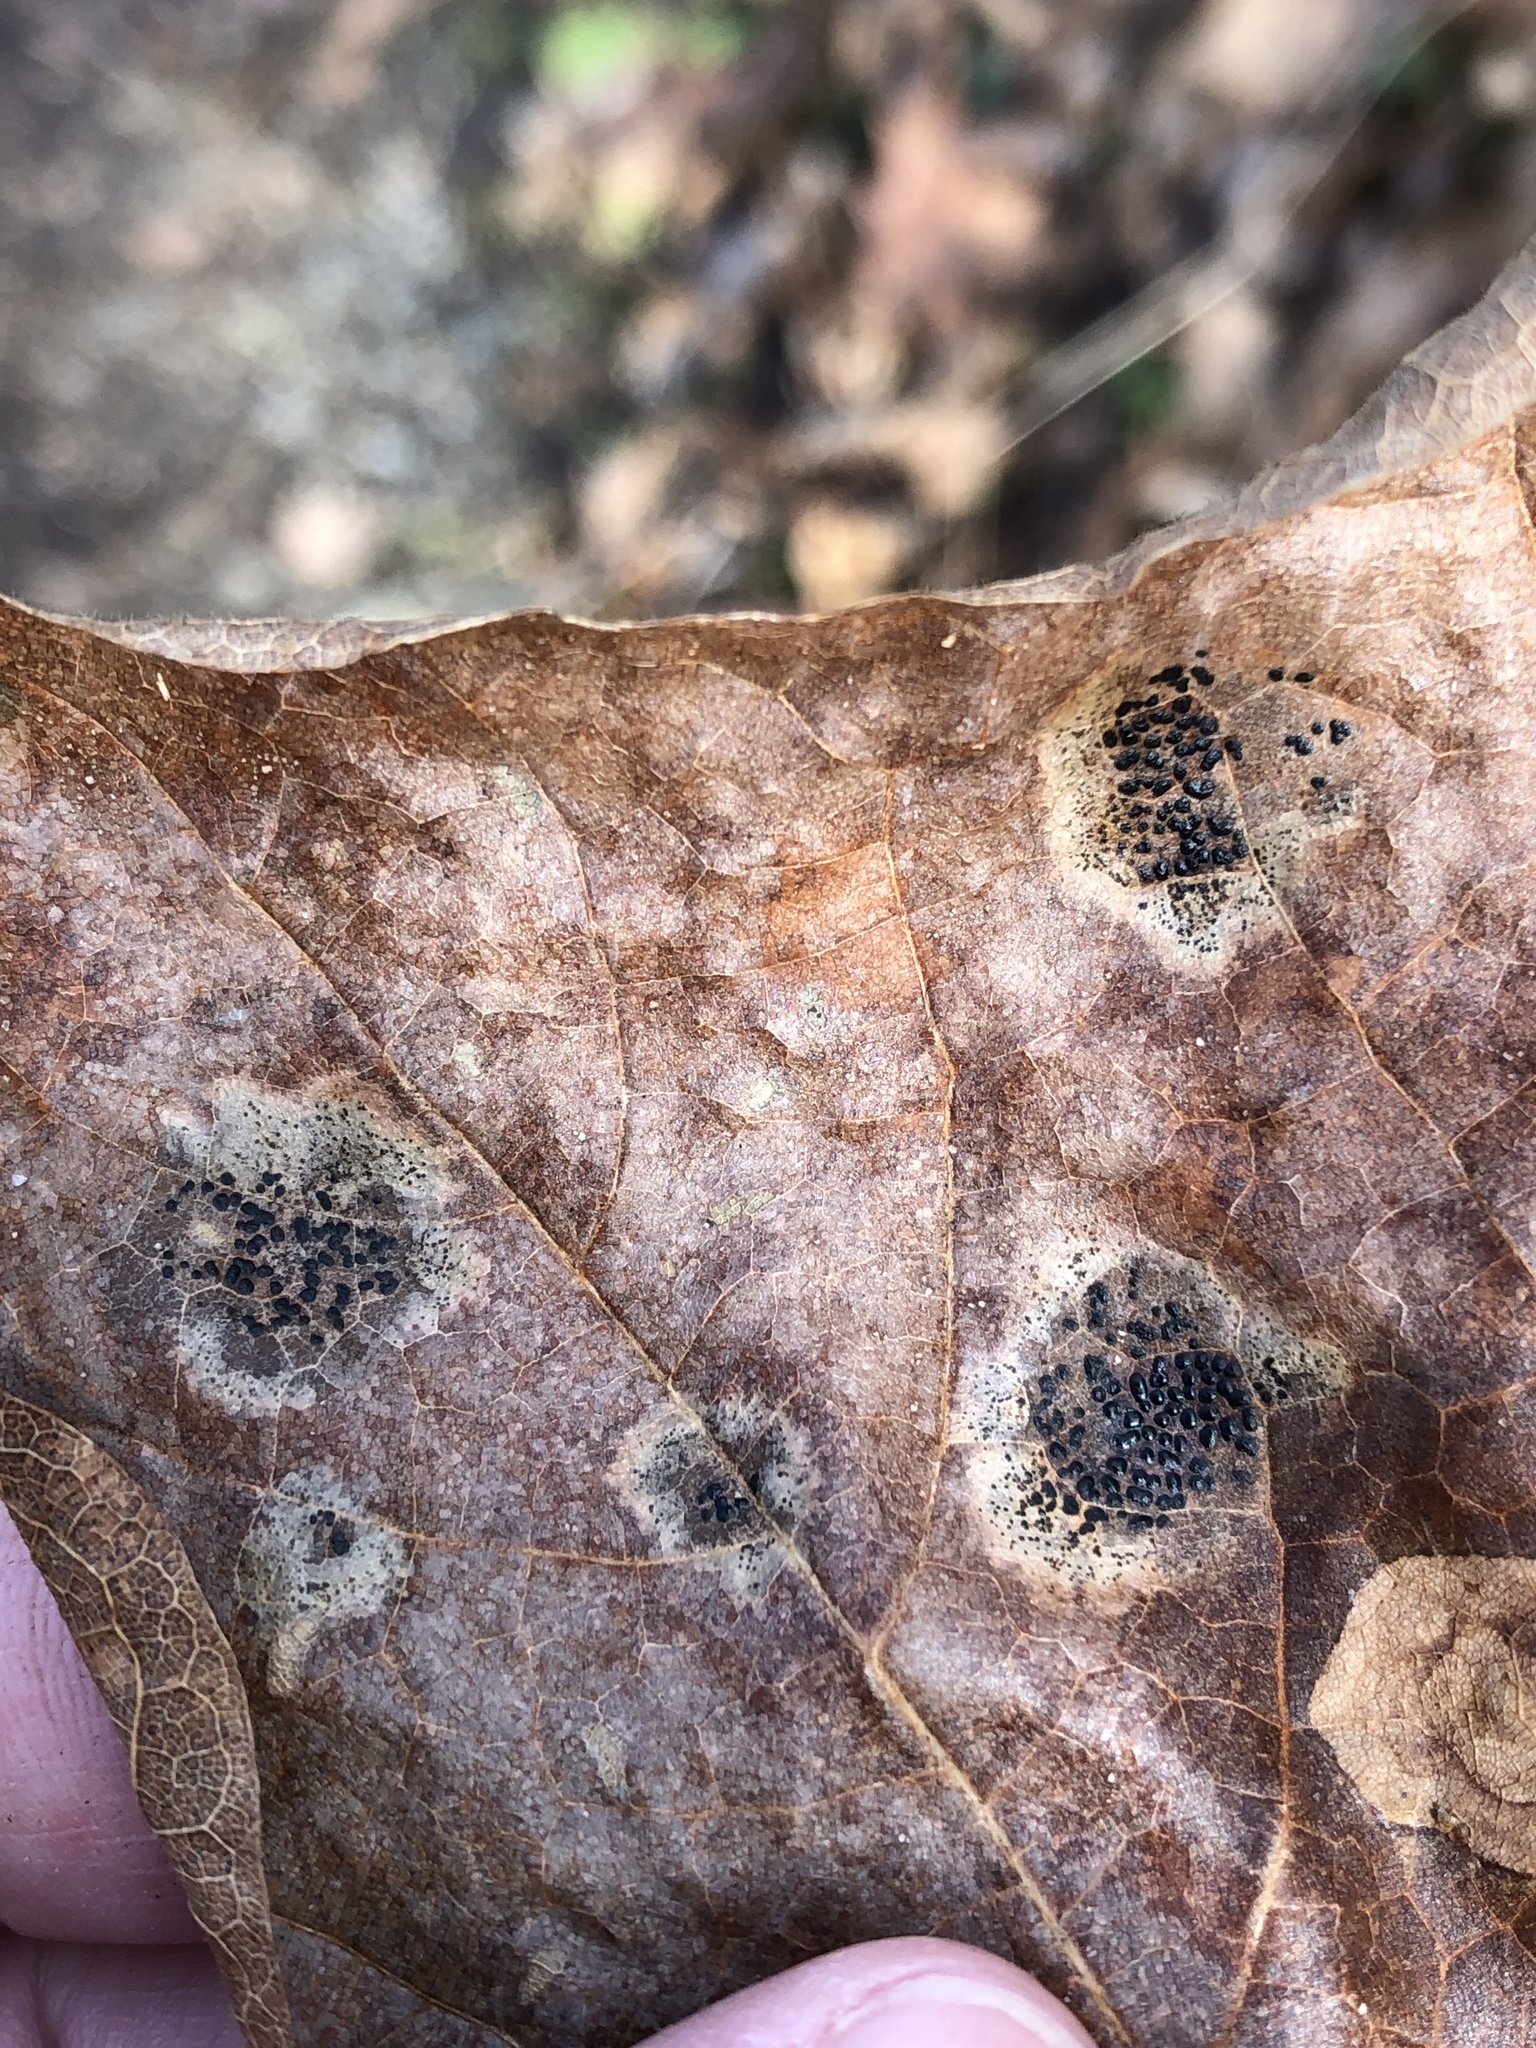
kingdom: Fungi
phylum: Ascomycota
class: Leotiomycetes
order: Rhytismatales
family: Rhytismataceae
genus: Rhytisma
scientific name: Rhytisma punctatum
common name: Speckled tar spot
